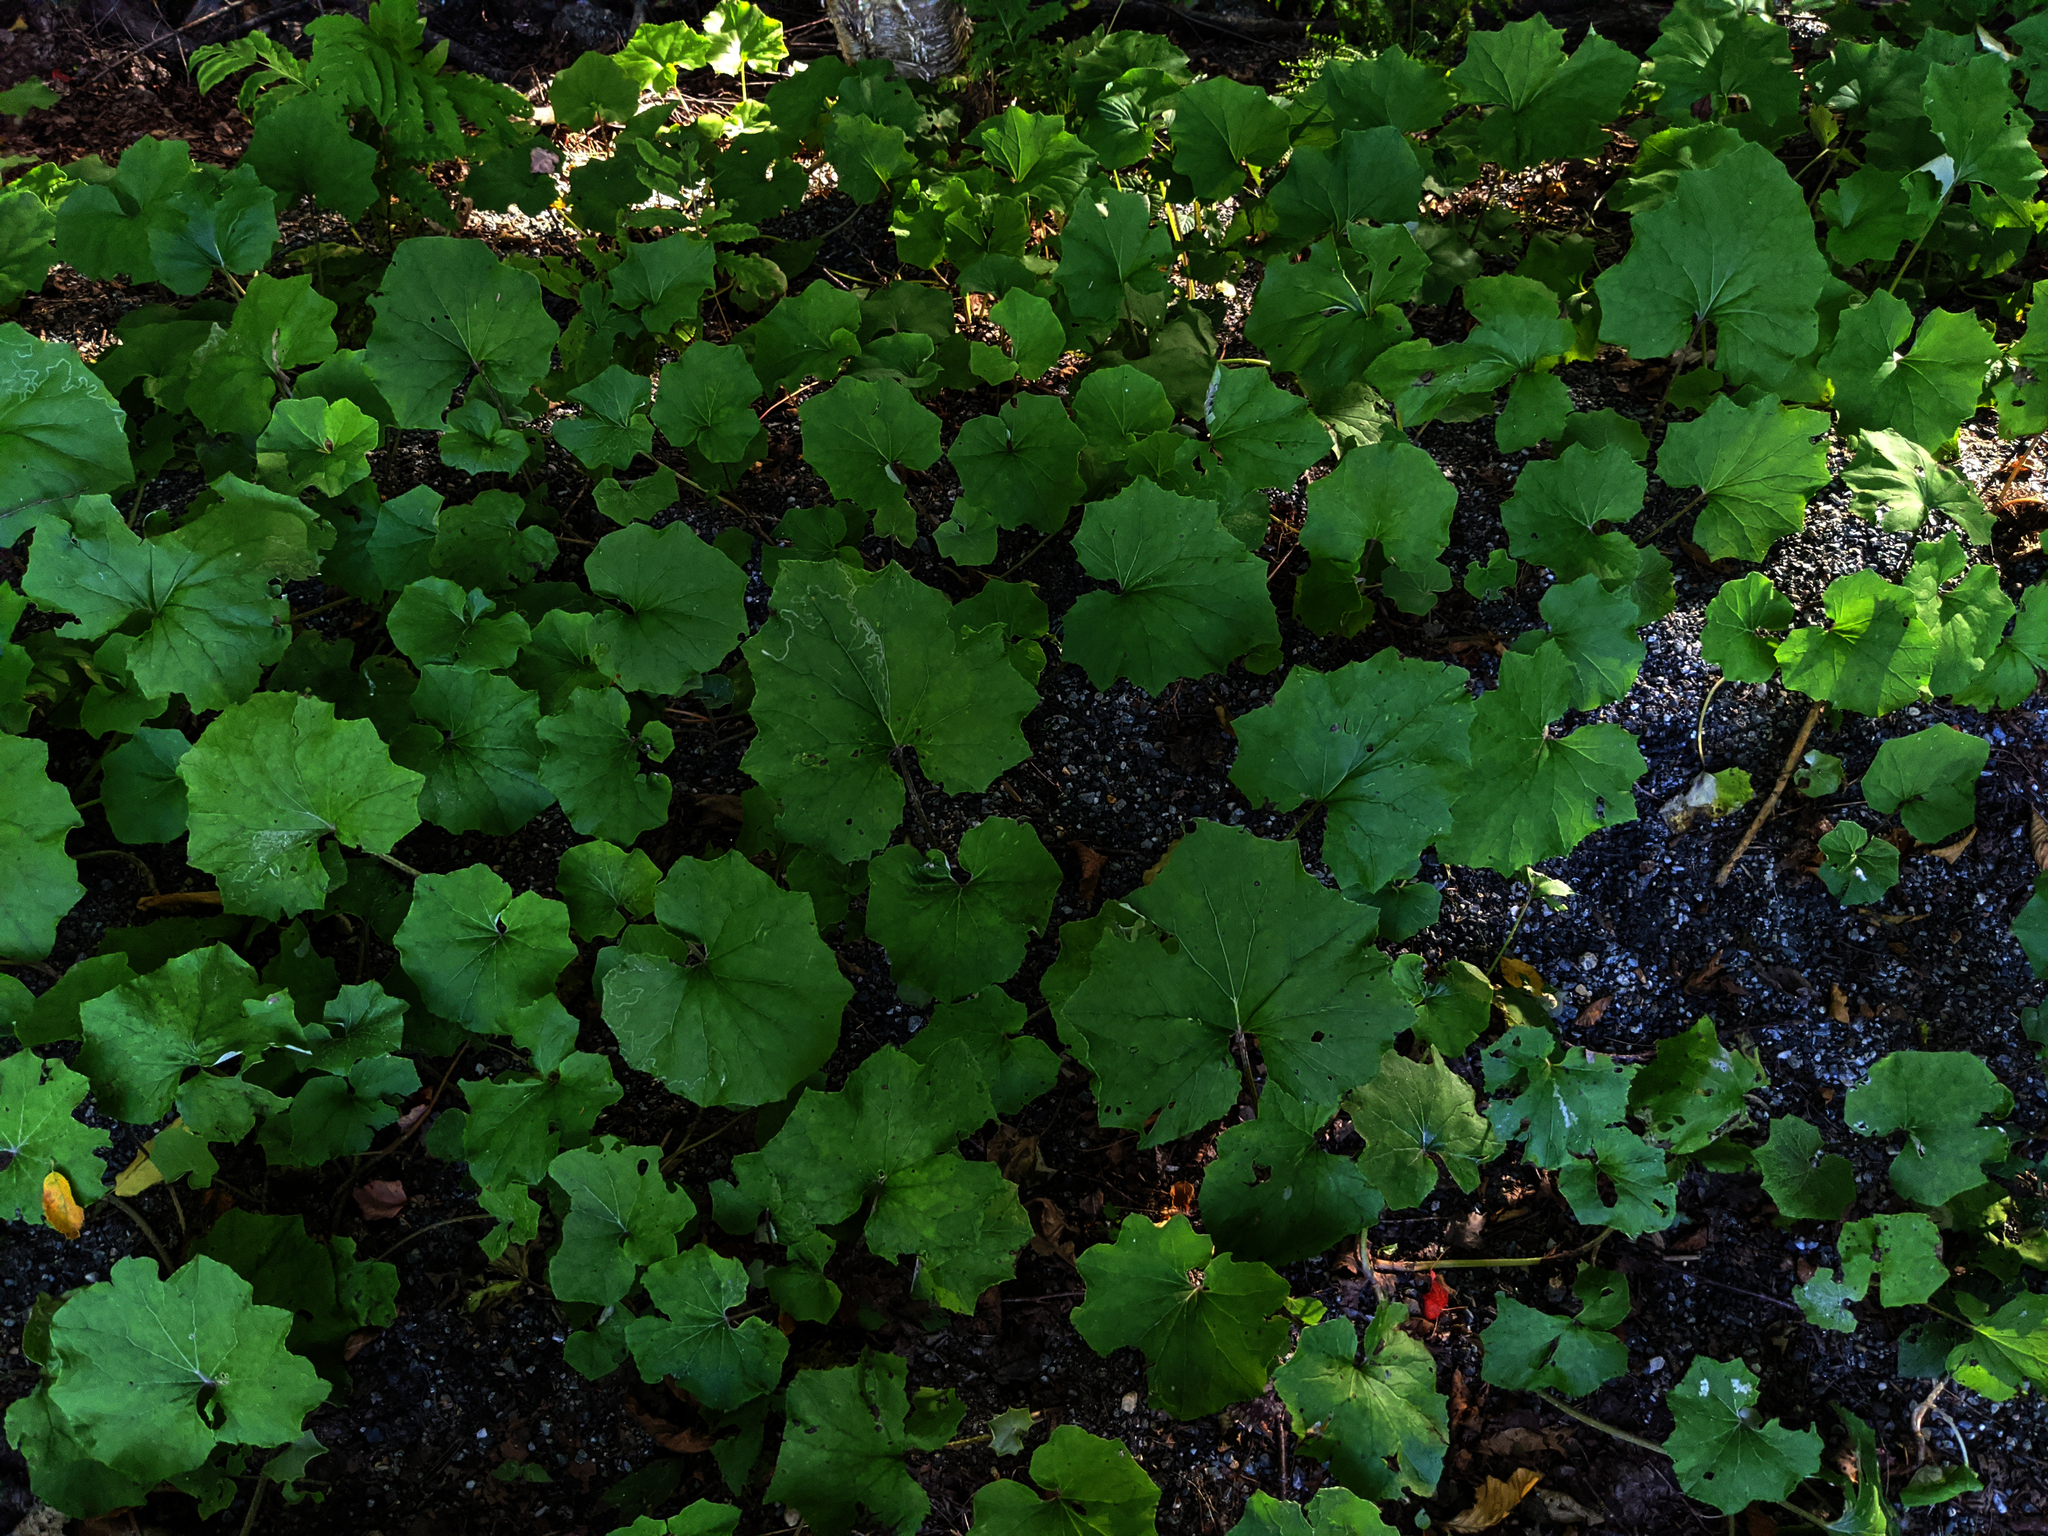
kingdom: Plantae
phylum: Tracheophyta
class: Magnoliopsida
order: Asterales
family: Asteraceae
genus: Tussilago
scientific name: Tussilago farfara
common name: Coltsfoot
